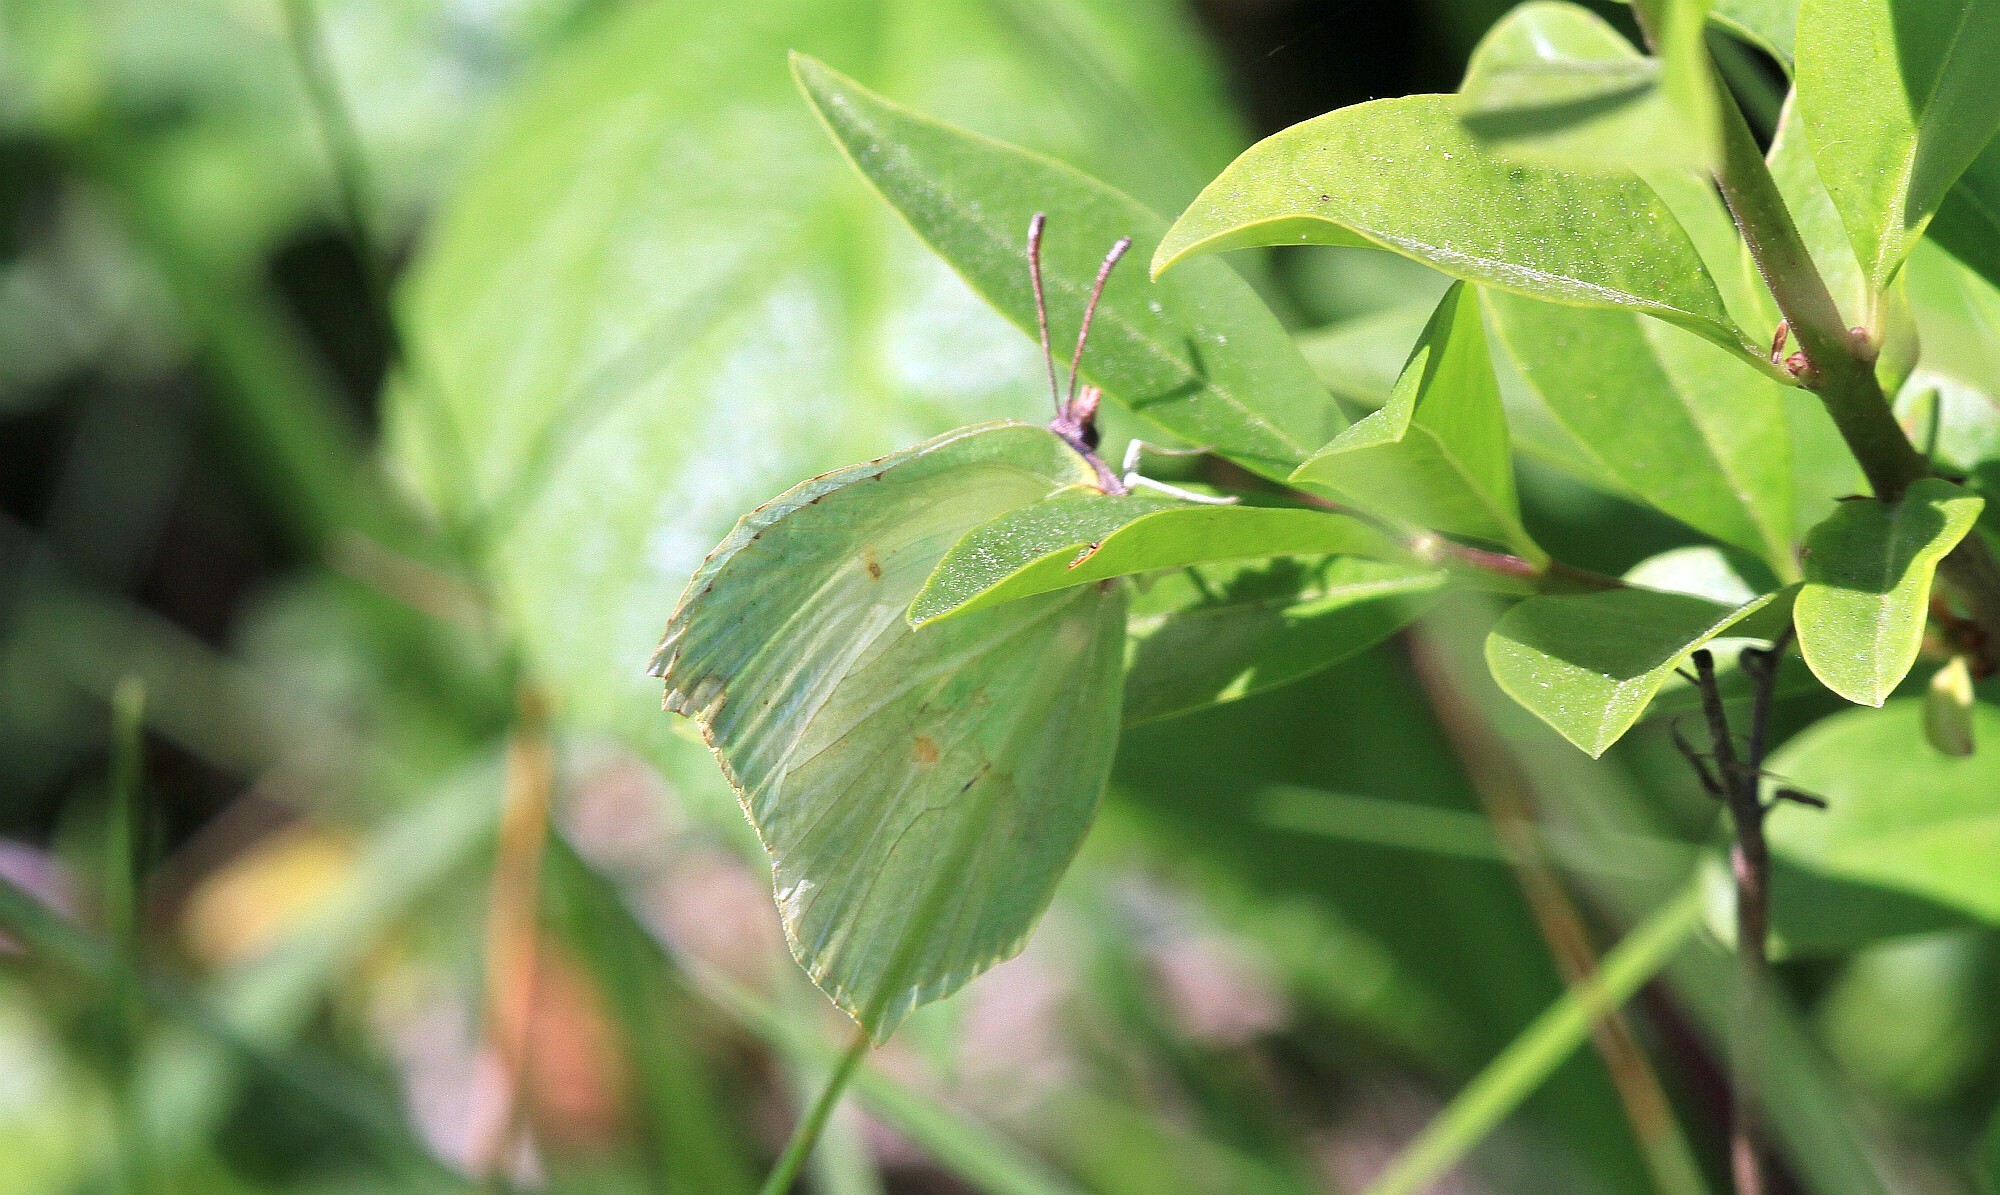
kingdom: Animalia
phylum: Arthropoda
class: Insecta
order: Lepidoptera
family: Pieridae
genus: Gonepteryx
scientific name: Gonepteryx rhamni
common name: Brimstone
